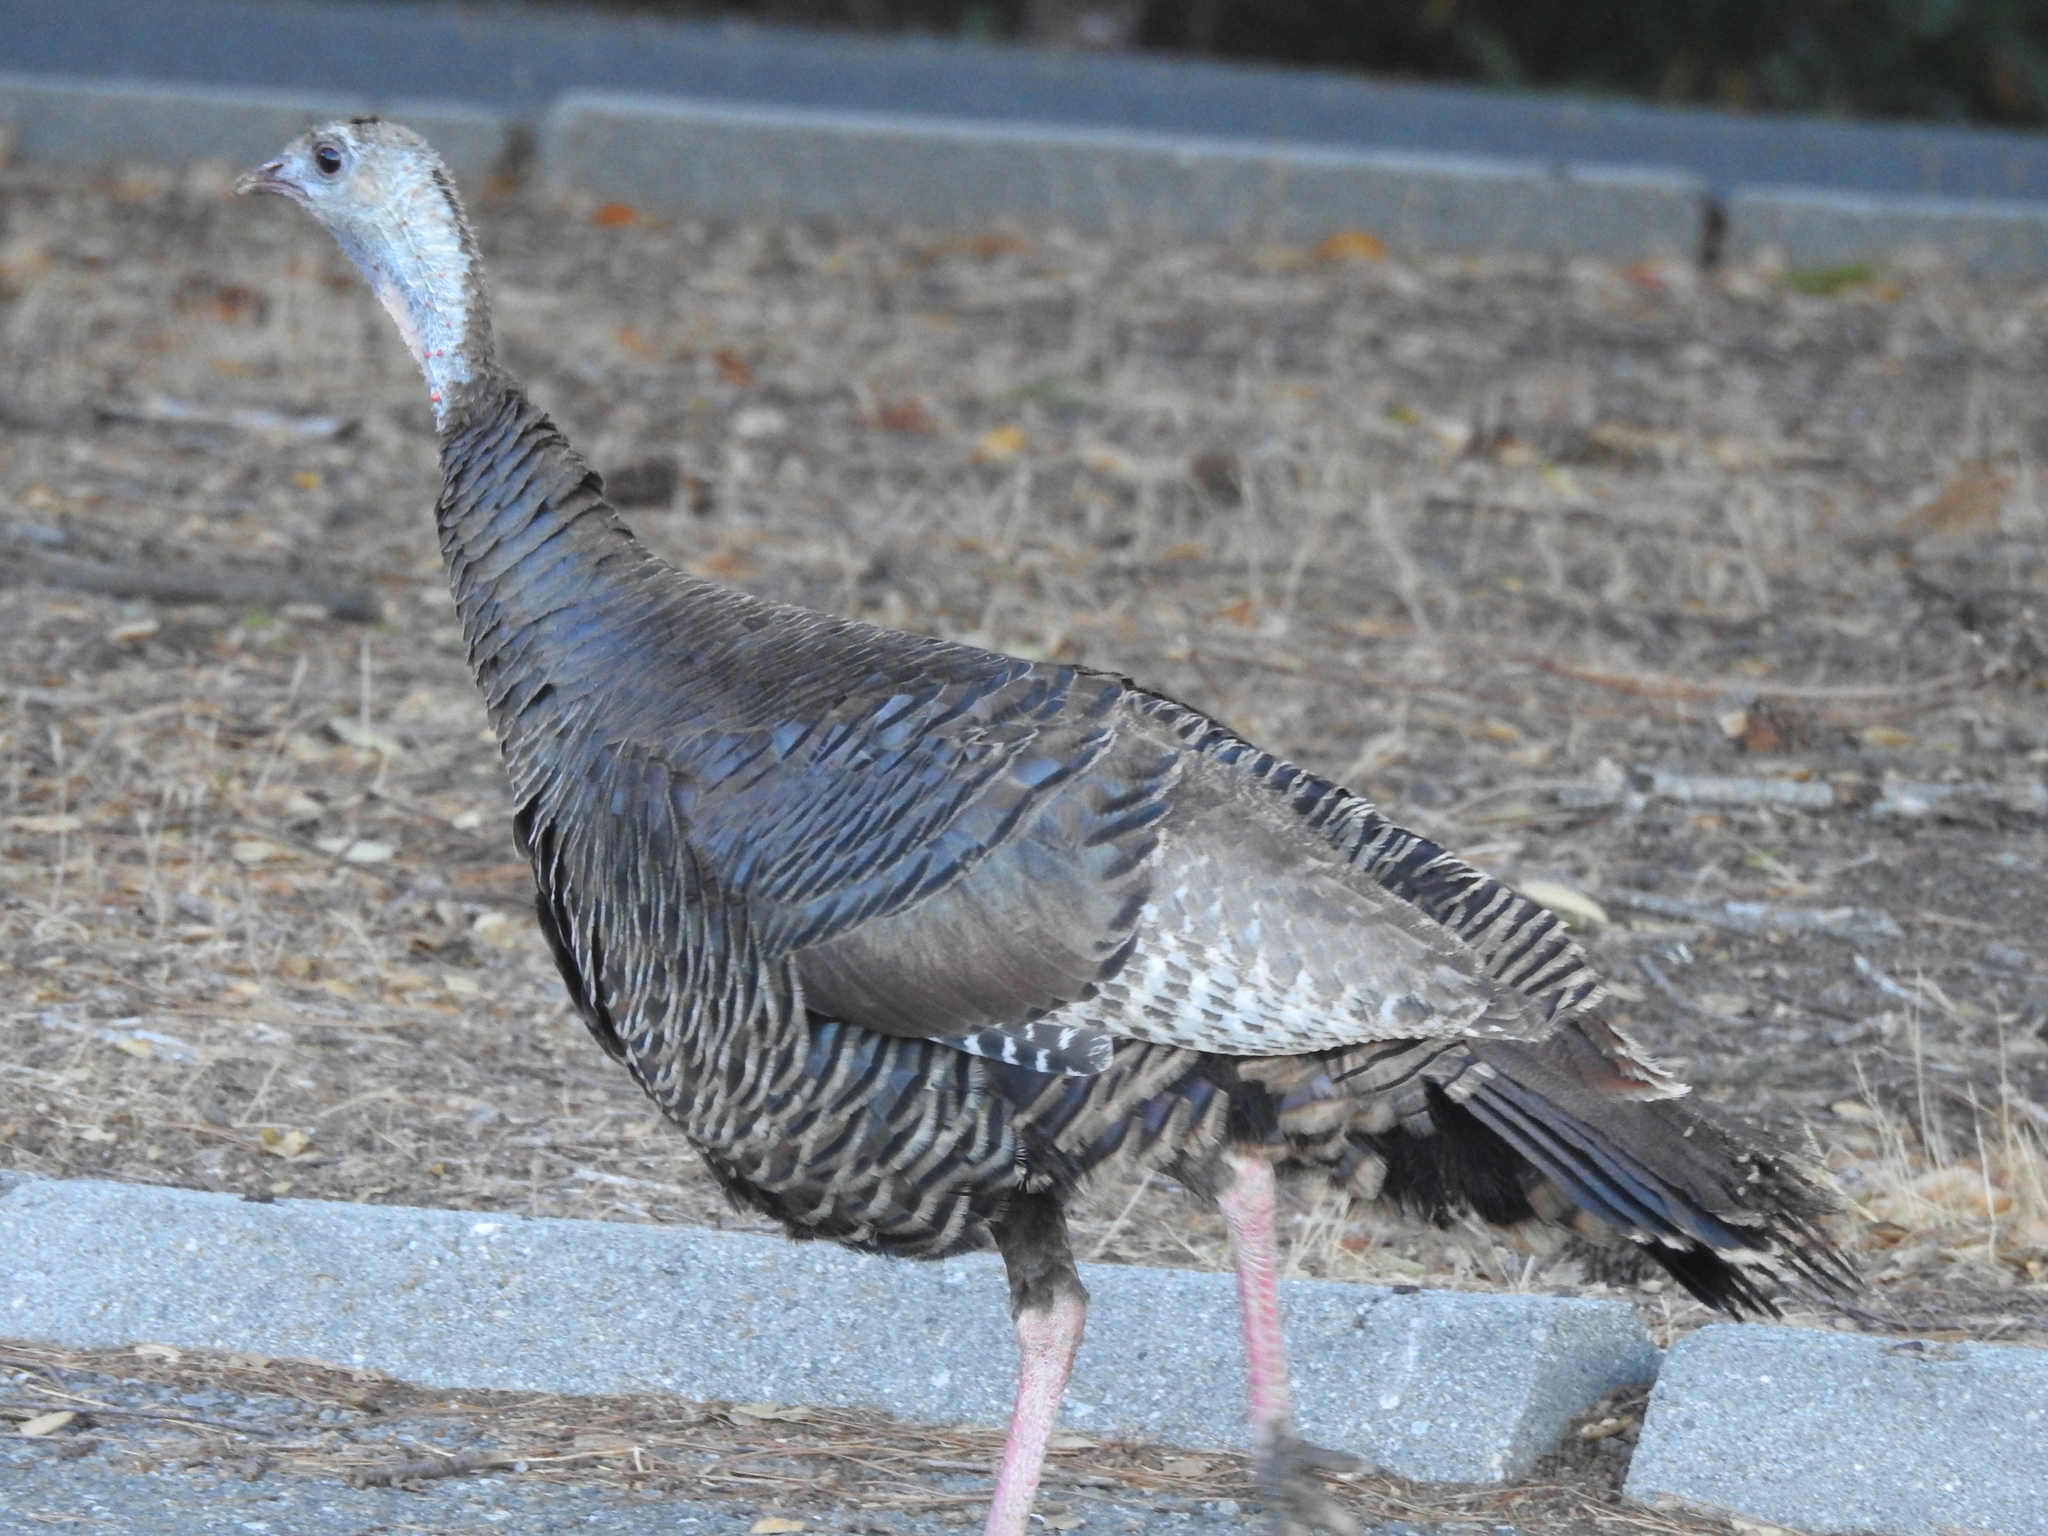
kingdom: Animalia
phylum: Chordata
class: Aves
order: Galliformes
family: Phasianidae
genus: Meleagris
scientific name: Meleagris gallopavo
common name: Wild turkey
